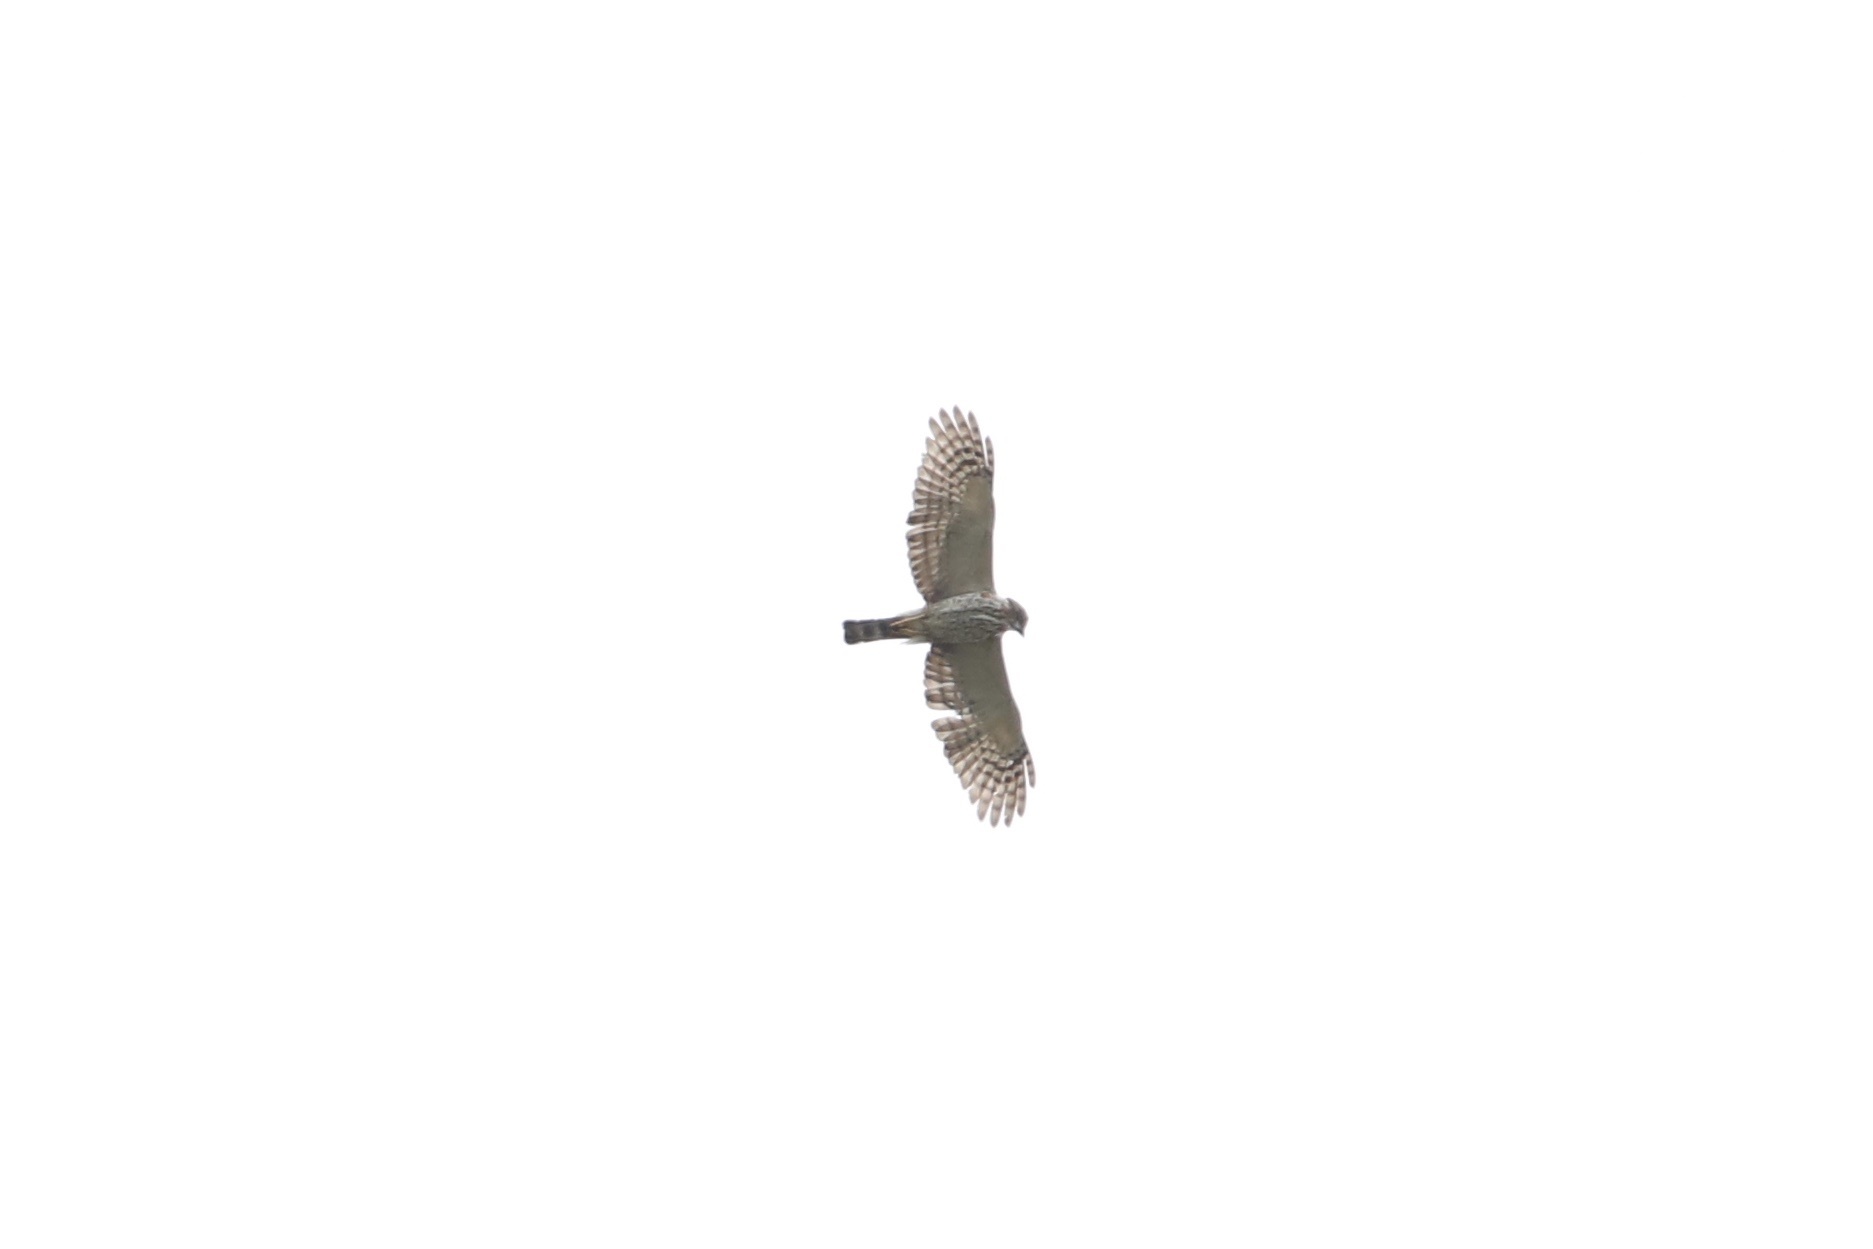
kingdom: Animalia
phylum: Chordata
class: Aves
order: Accipitriformes
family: Accipitridae
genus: Harpagus
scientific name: Harpagus bidentatus
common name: Double-toothed kite
